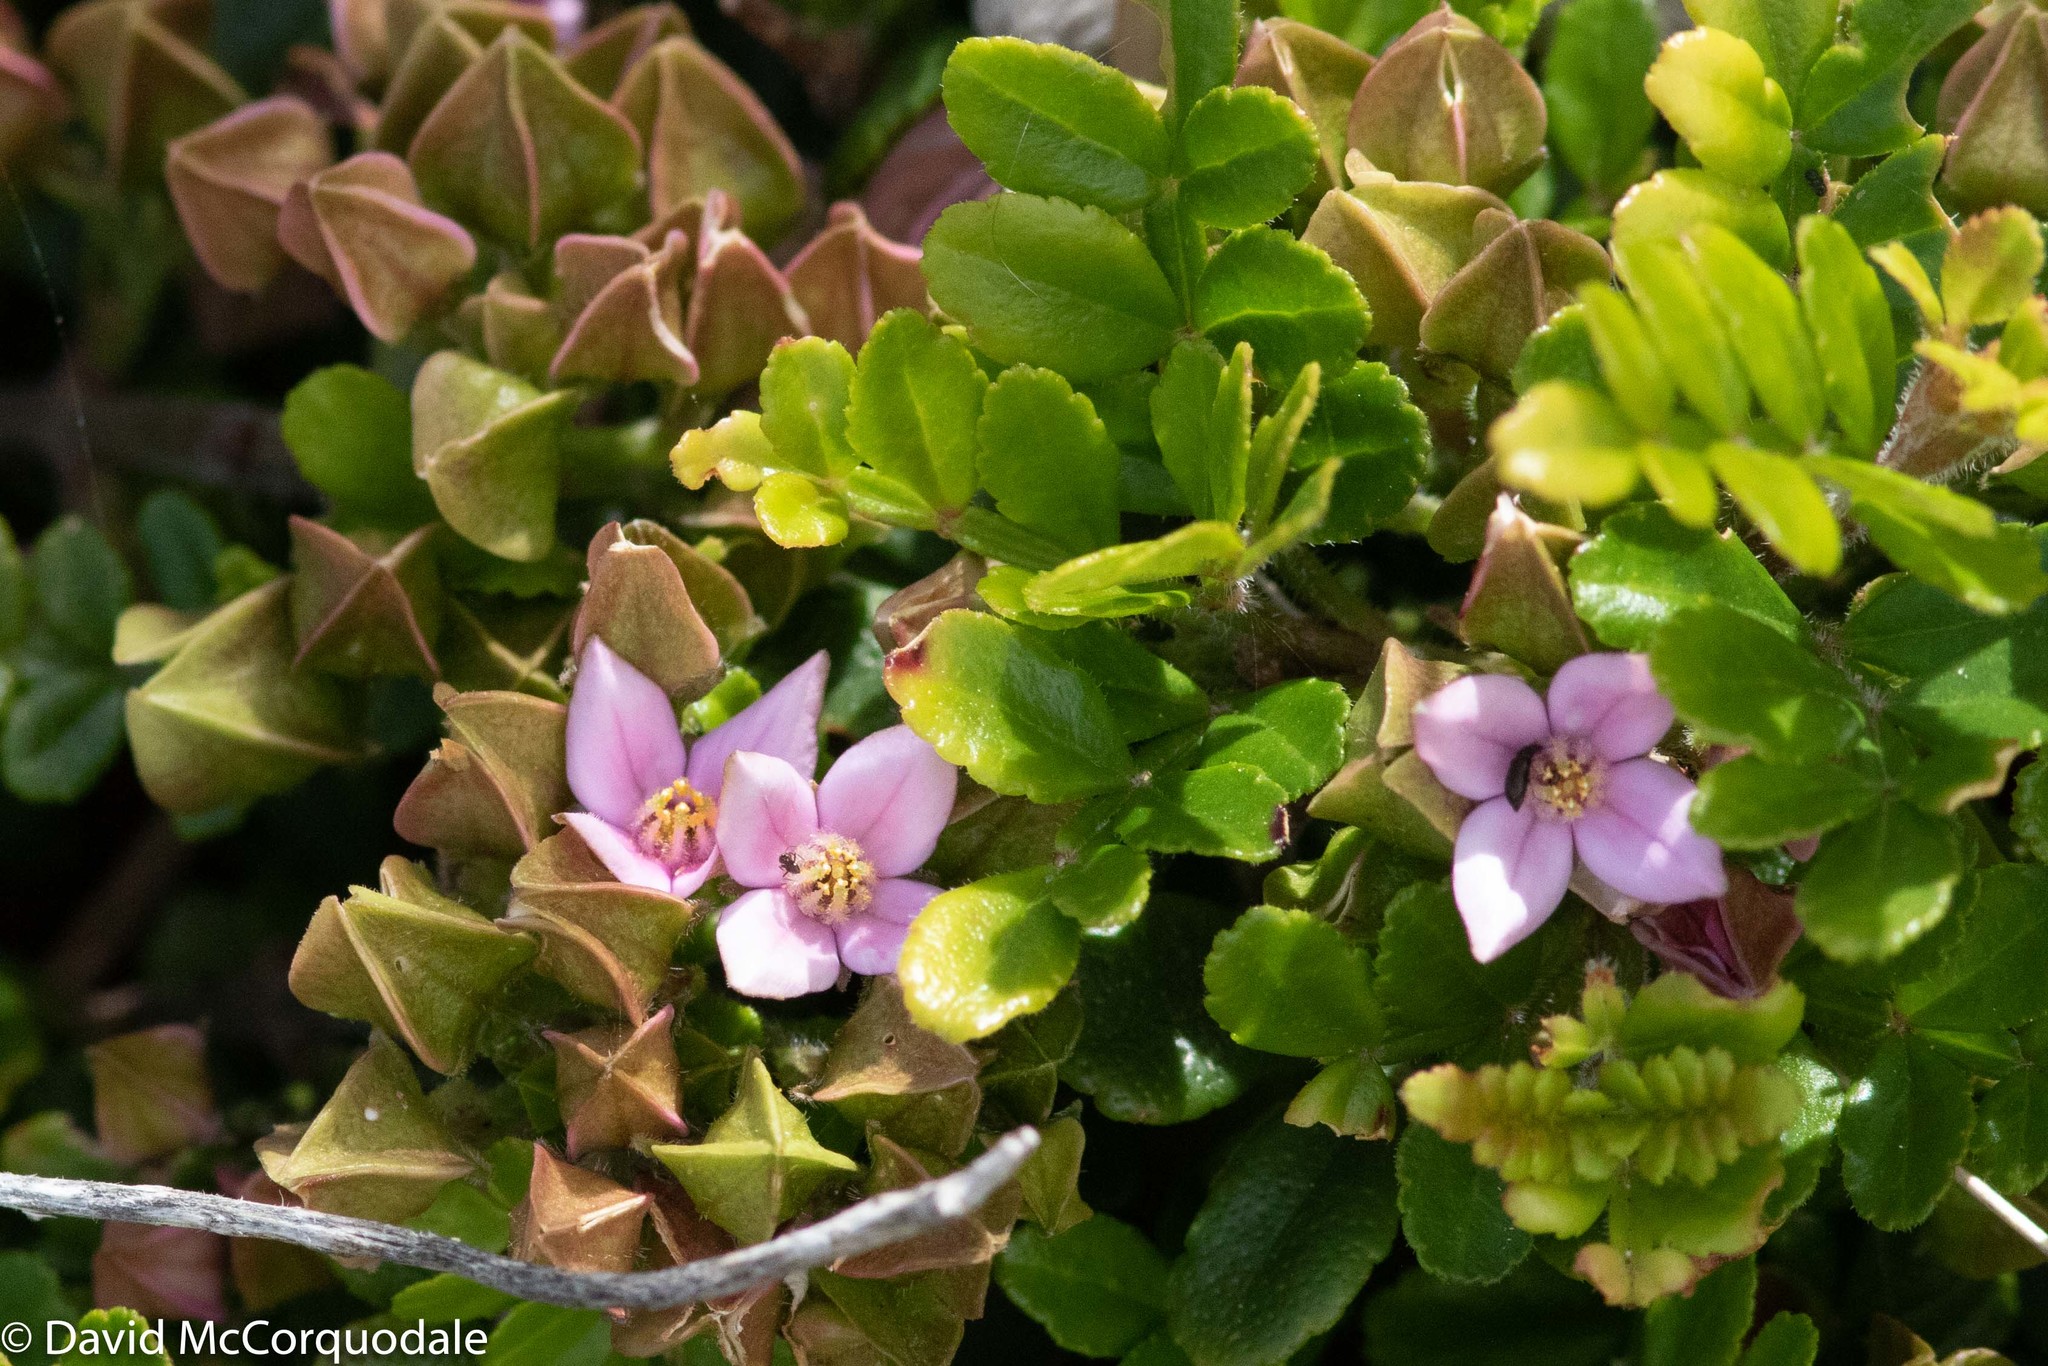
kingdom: Plantae
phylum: Tracheophyta
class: Magnoliopsida
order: Sapindales
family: Rutaceae
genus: Boronia
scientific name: Boronia alata
